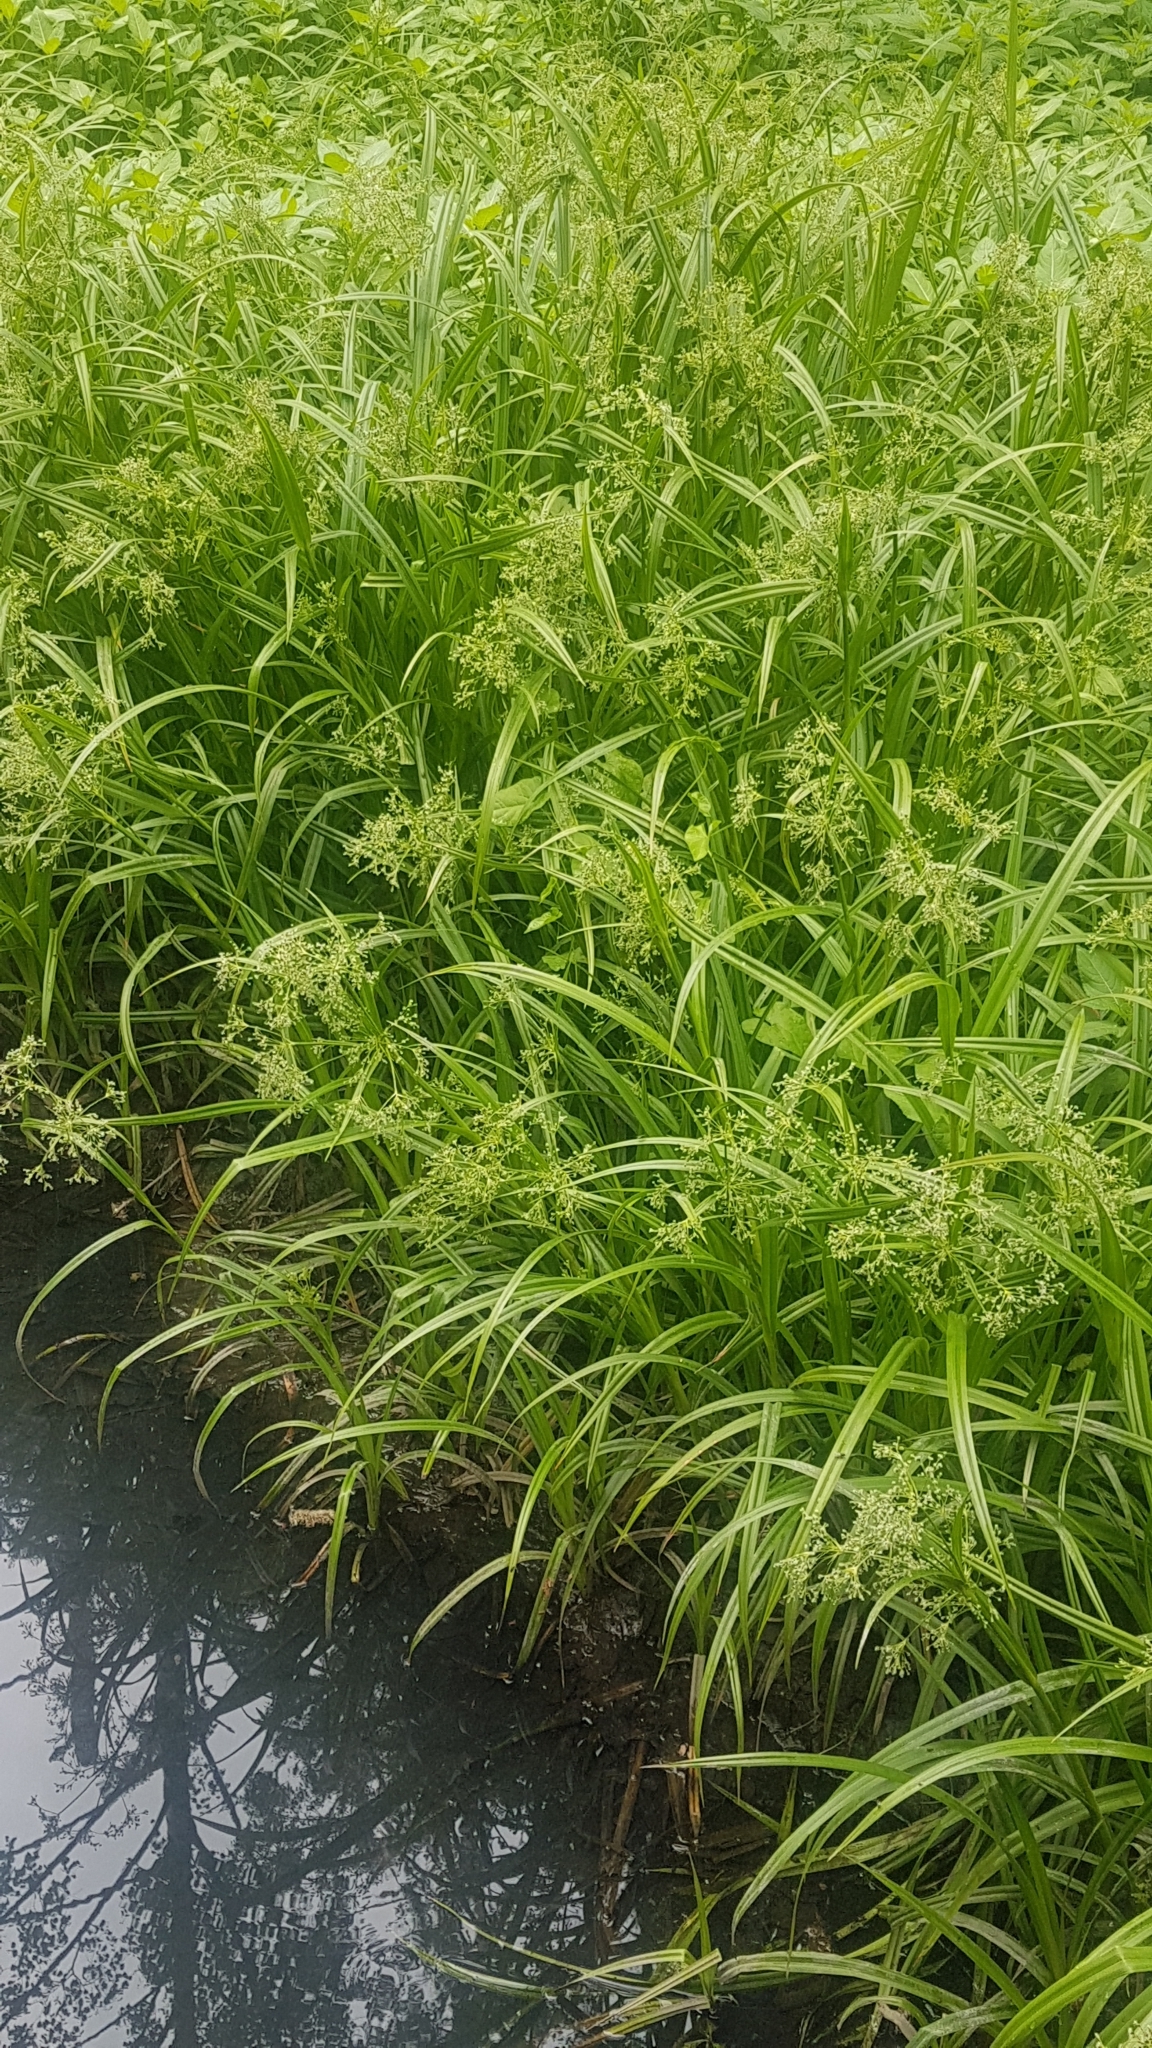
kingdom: Plantae
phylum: Tracheophyta
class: Liliopsida
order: Poales
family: Cyperaceae
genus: Scirpus
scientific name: Scirpus sylvaticus
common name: Wood club-rush
